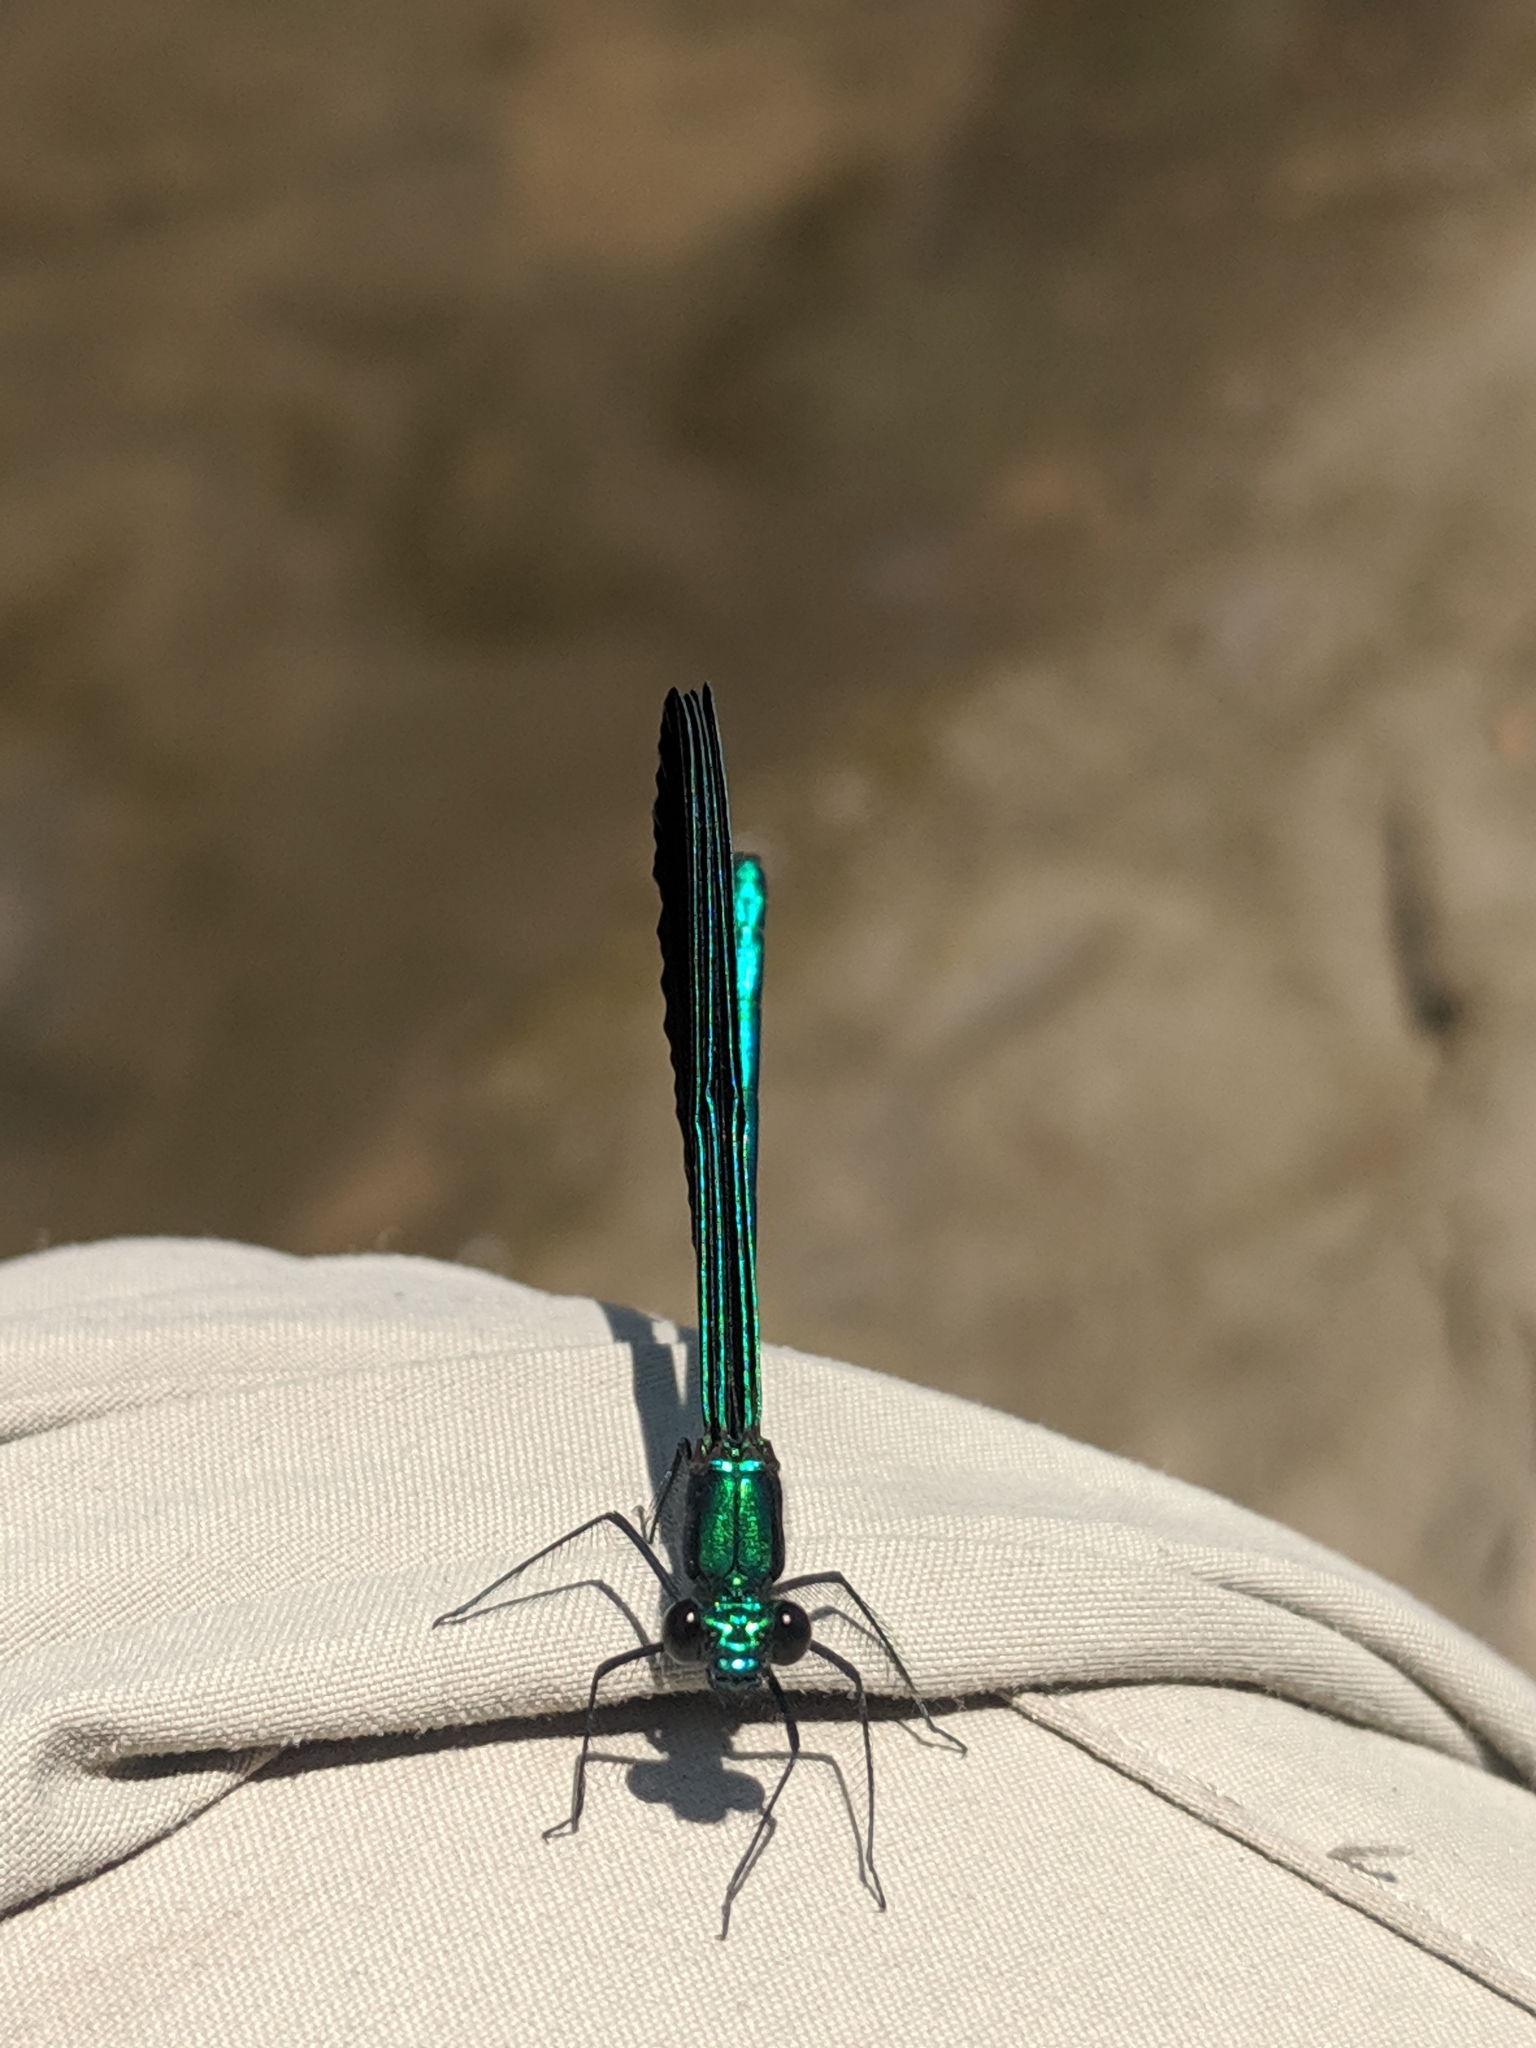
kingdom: Animalia
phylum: Arthropoda
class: Insecta
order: Odonata
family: Calopterygidae
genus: Calopteryx
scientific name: Calopteryx maculata
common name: Ebony jewelwing
